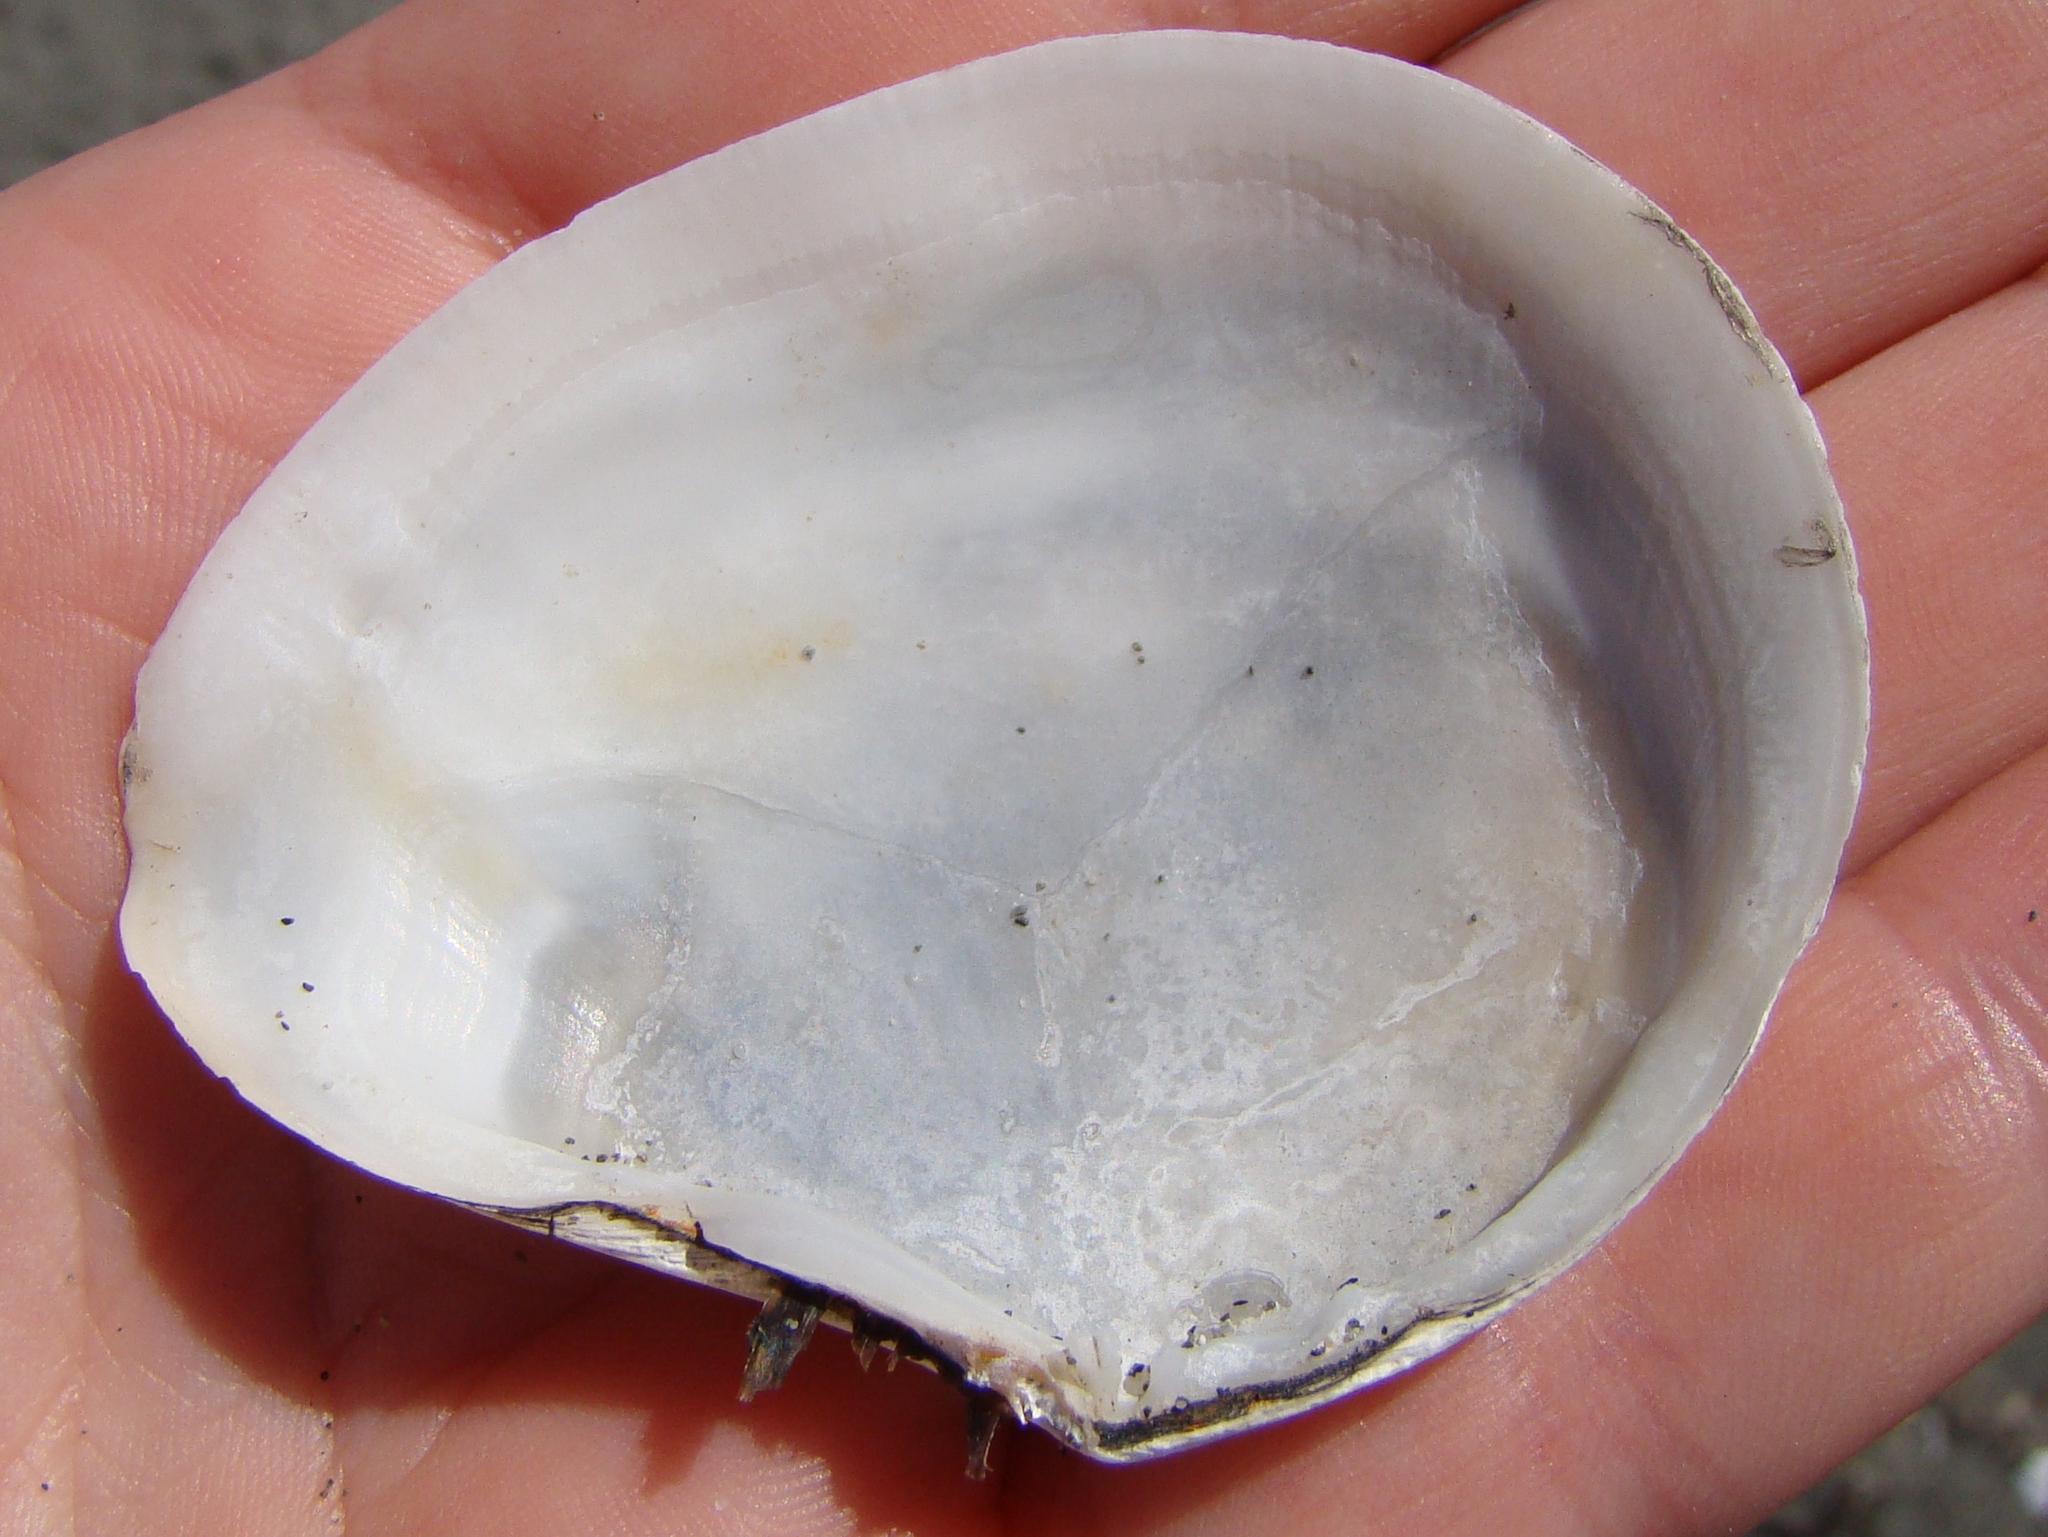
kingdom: Animalia
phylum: Mollusca
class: Bivalvia
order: Cardiida
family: Tellinidae
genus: Macomona
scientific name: Macomona liliana
